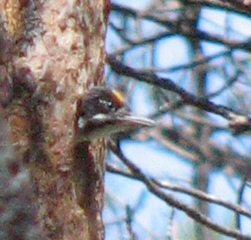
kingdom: Animalia
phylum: Chordata
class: Aves
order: Piciformes
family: Picidae
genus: Picoides
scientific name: Picoides arcticus
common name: Black-backed woodpecker
